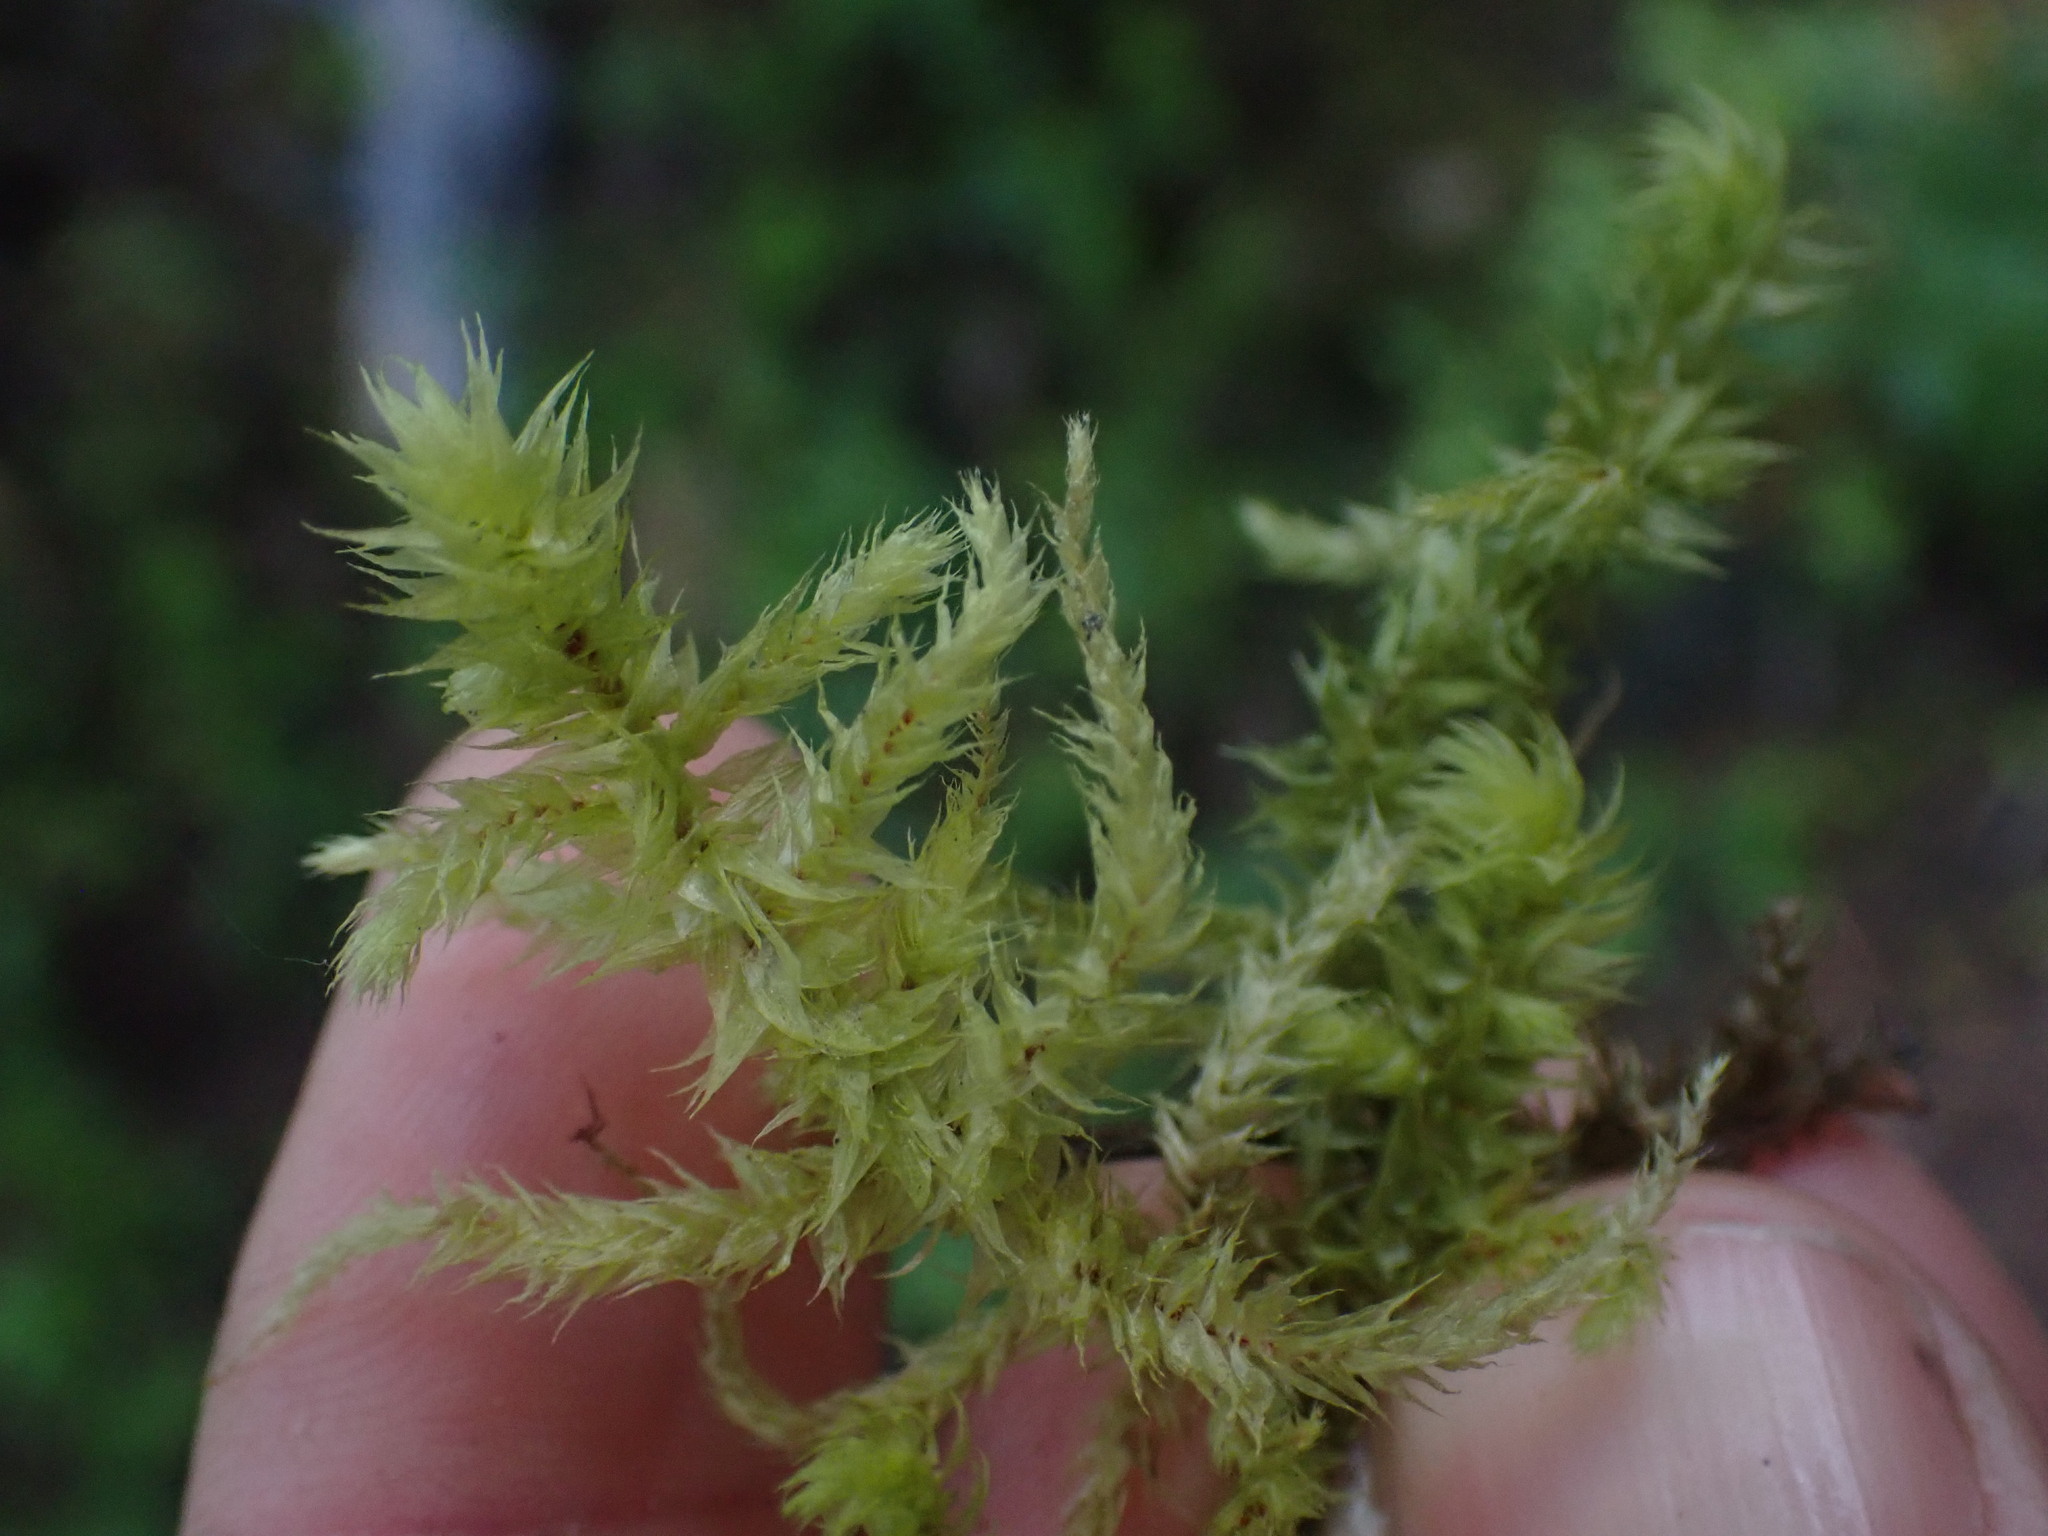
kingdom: Plantae
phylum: Bryophyta
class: Bryopsida
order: Hypnales
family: Hylocomiaceae
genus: Hylocomiadelphus
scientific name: Hylocomiadelphus triquetrus
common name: Rough goose neck moss
